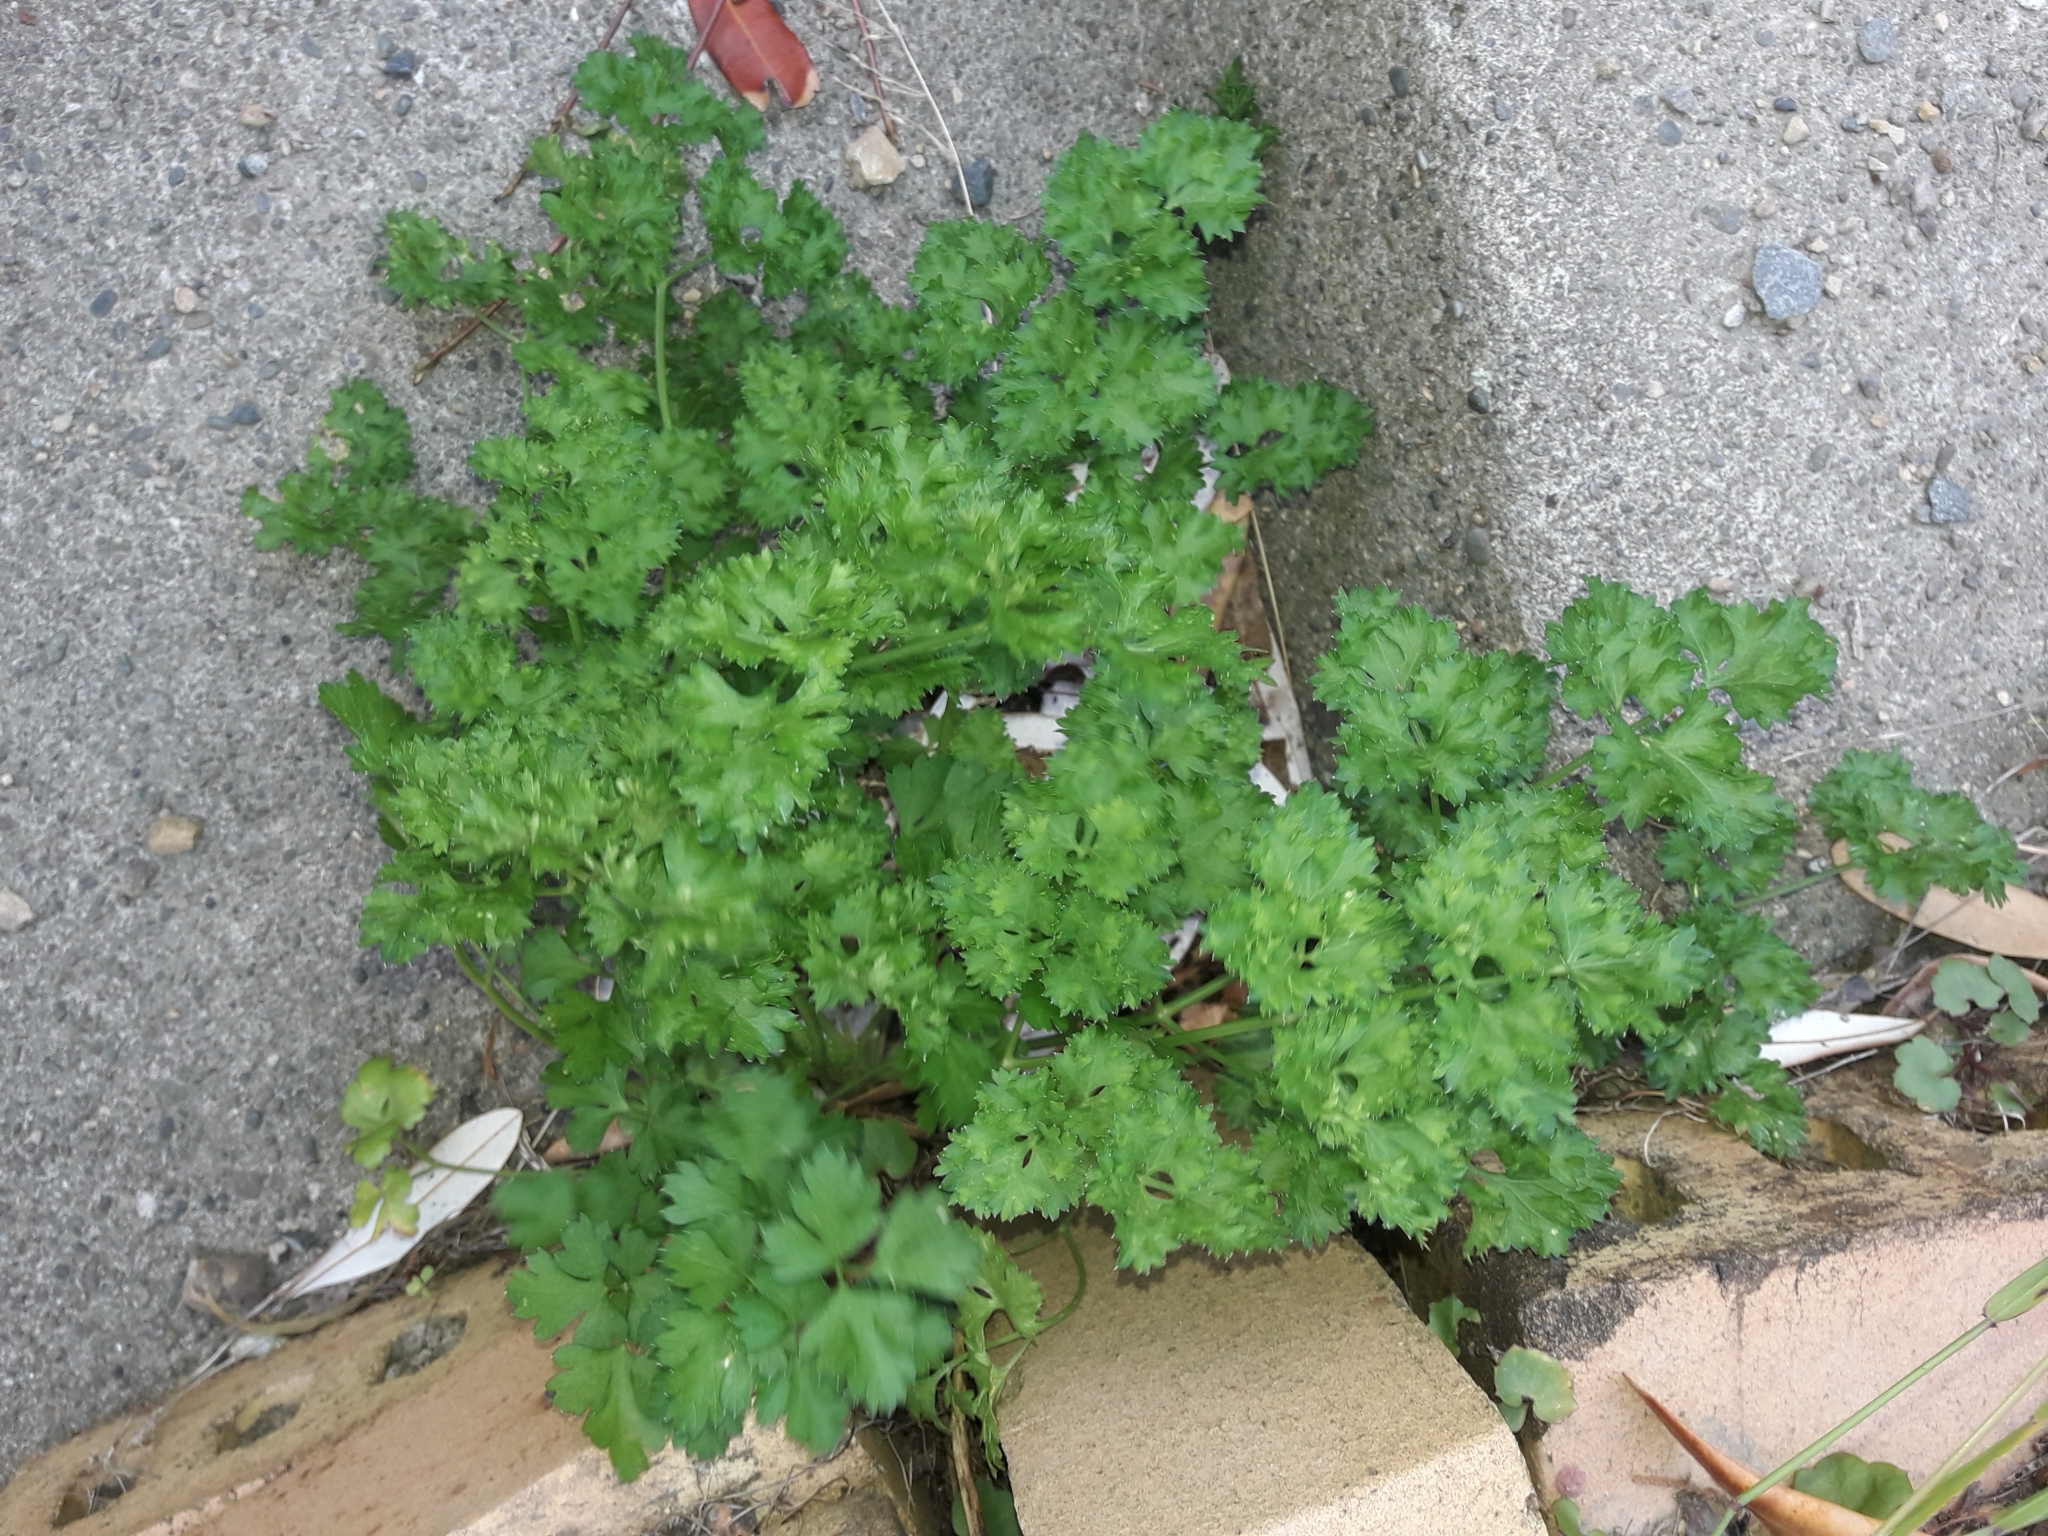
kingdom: Plantae
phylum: Tracheophyta
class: Magnoliopsida
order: Apiales
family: Apiaceae
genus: Petroselinum
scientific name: Petroselinum crispum
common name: Parsley
